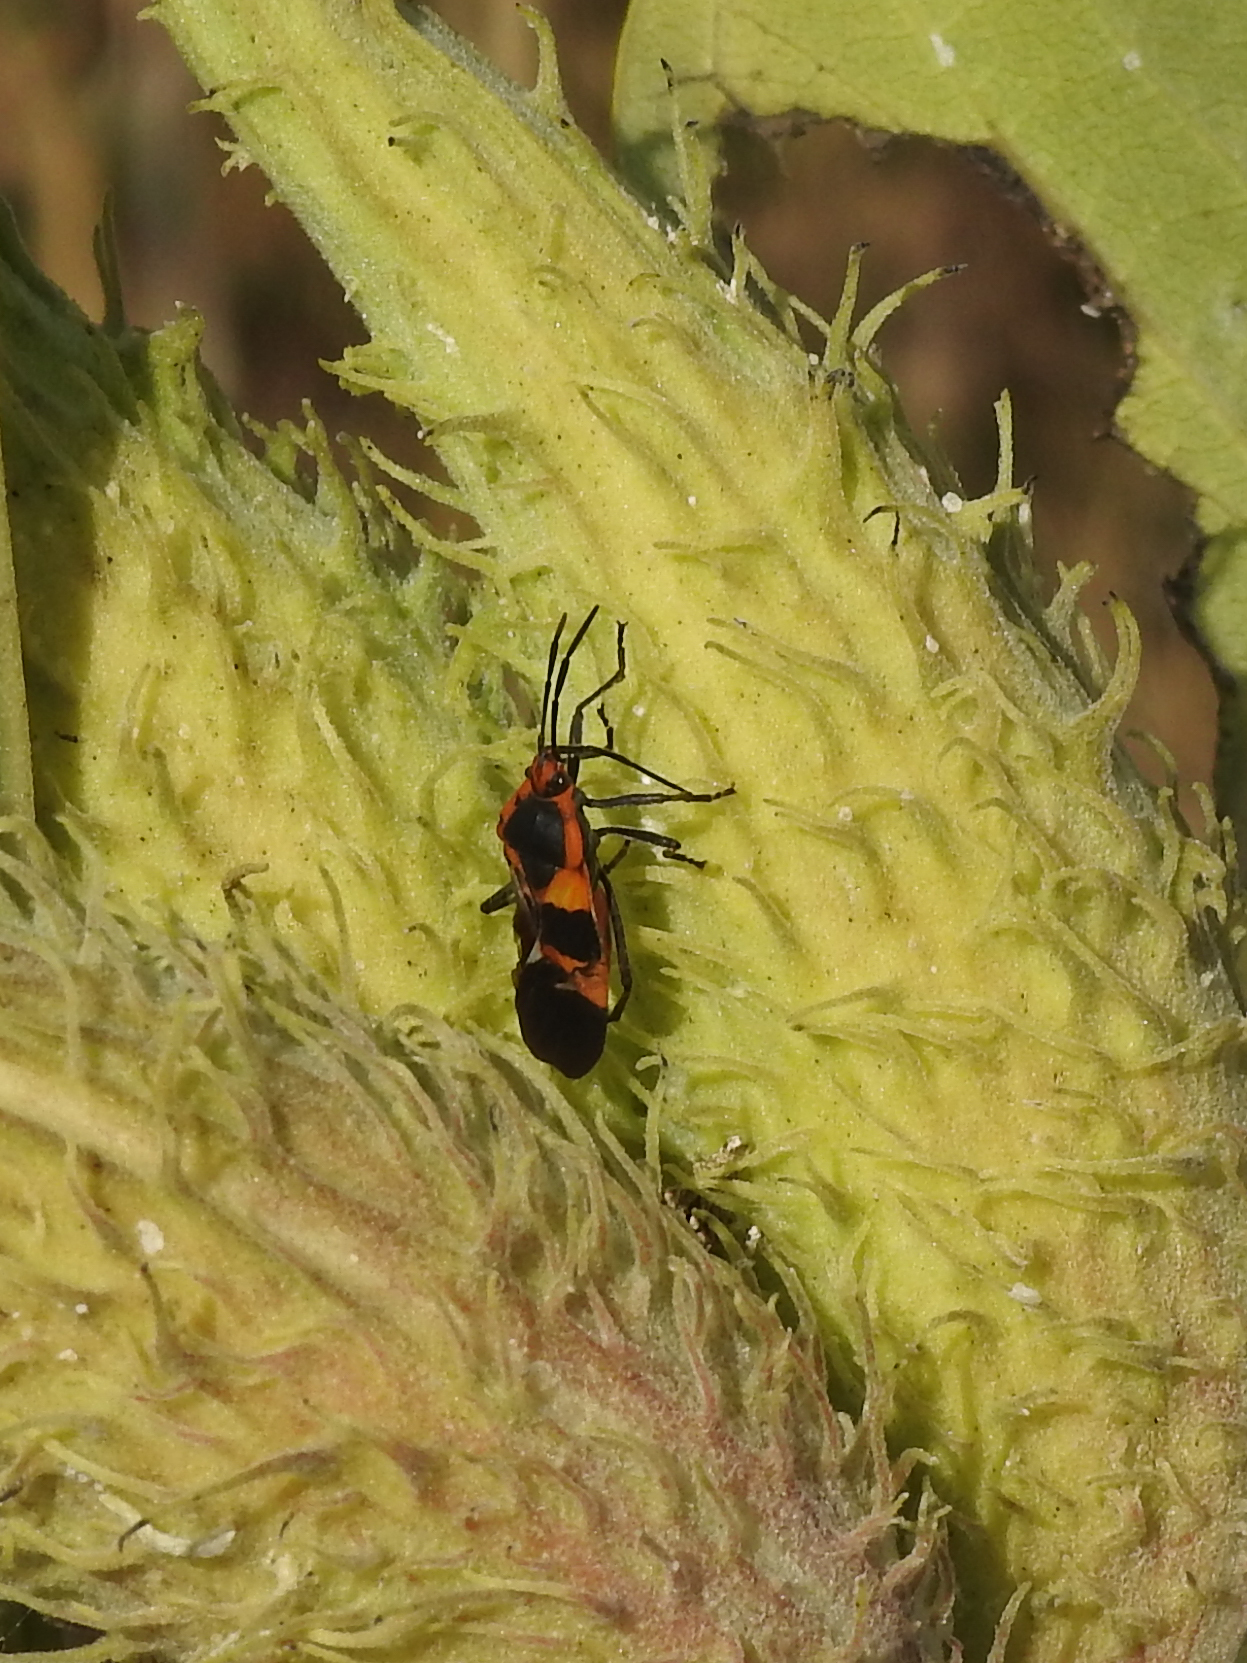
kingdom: Animalia
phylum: Arthropoda
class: Insecta
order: Hemiptera
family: Lygaeidae
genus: Oncopeltus
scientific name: Oncopeltus fasciatus
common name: Large milkweed bug
